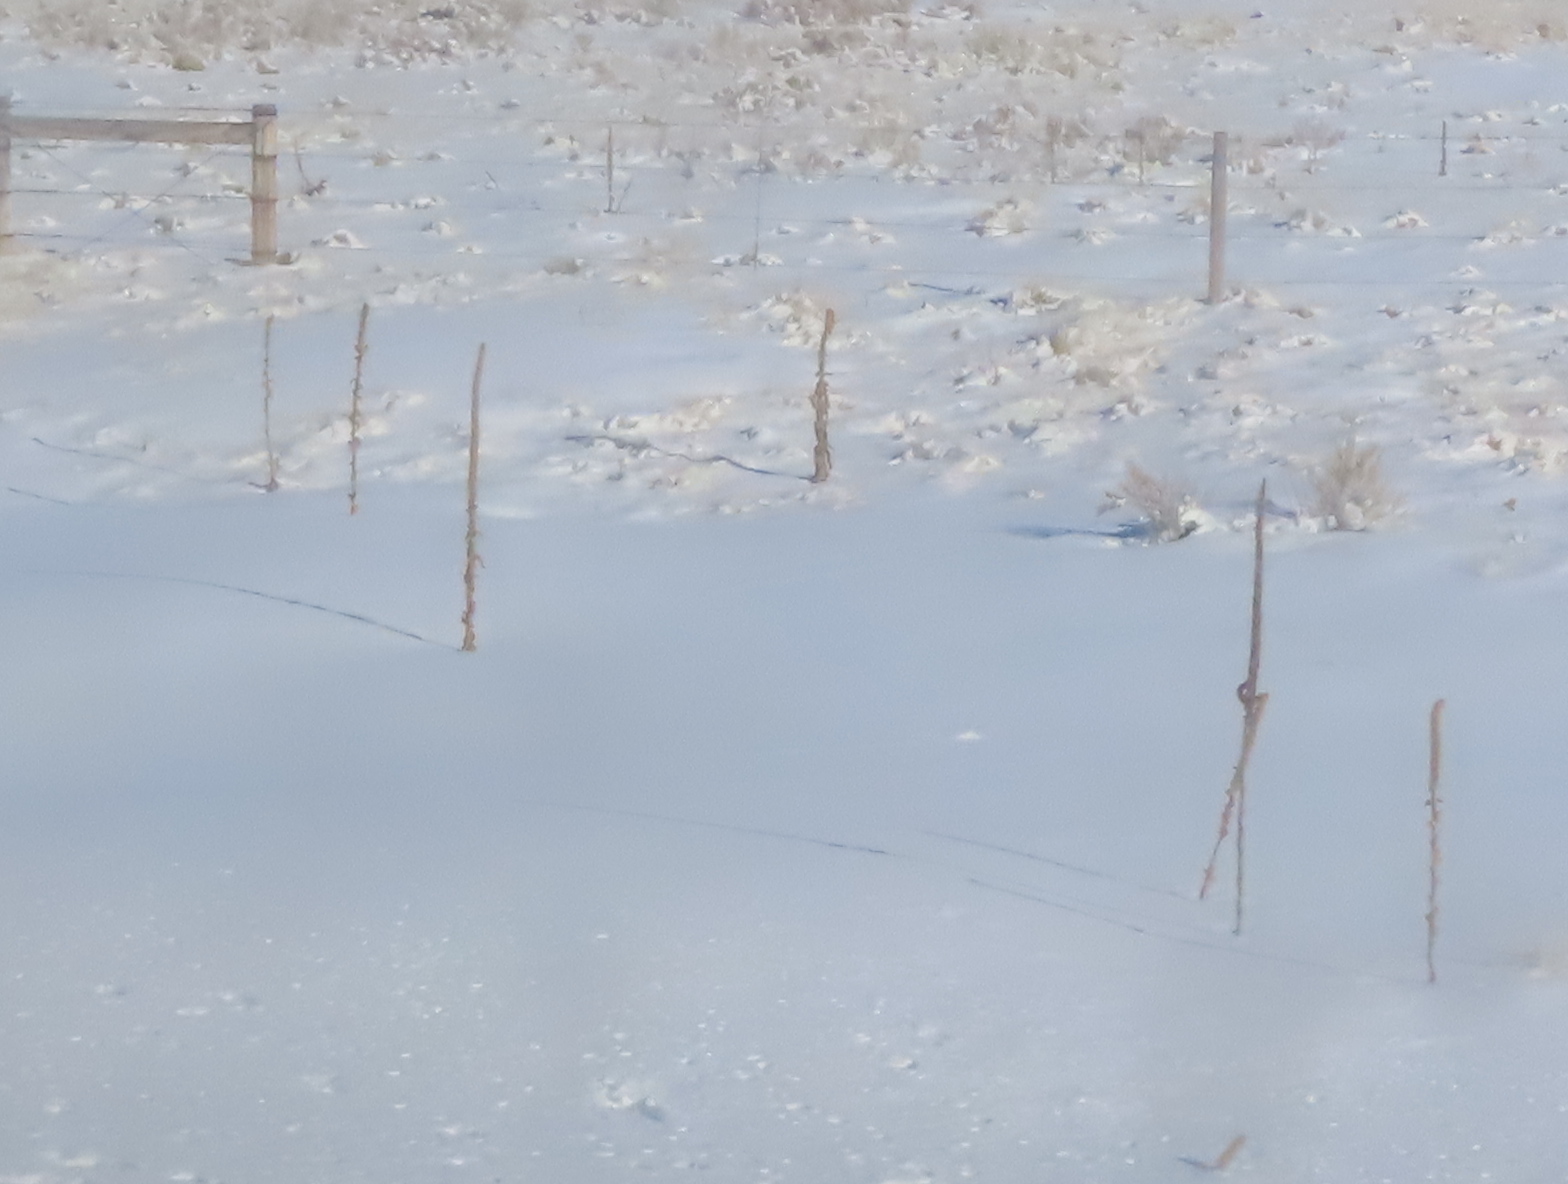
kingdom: Plantae
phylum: Tracheophyta
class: Magnoliopsida
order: Lamiales
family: Scrophulariaceae
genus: Verbascum
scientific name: Verbascum thapsus
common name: Common mullein
